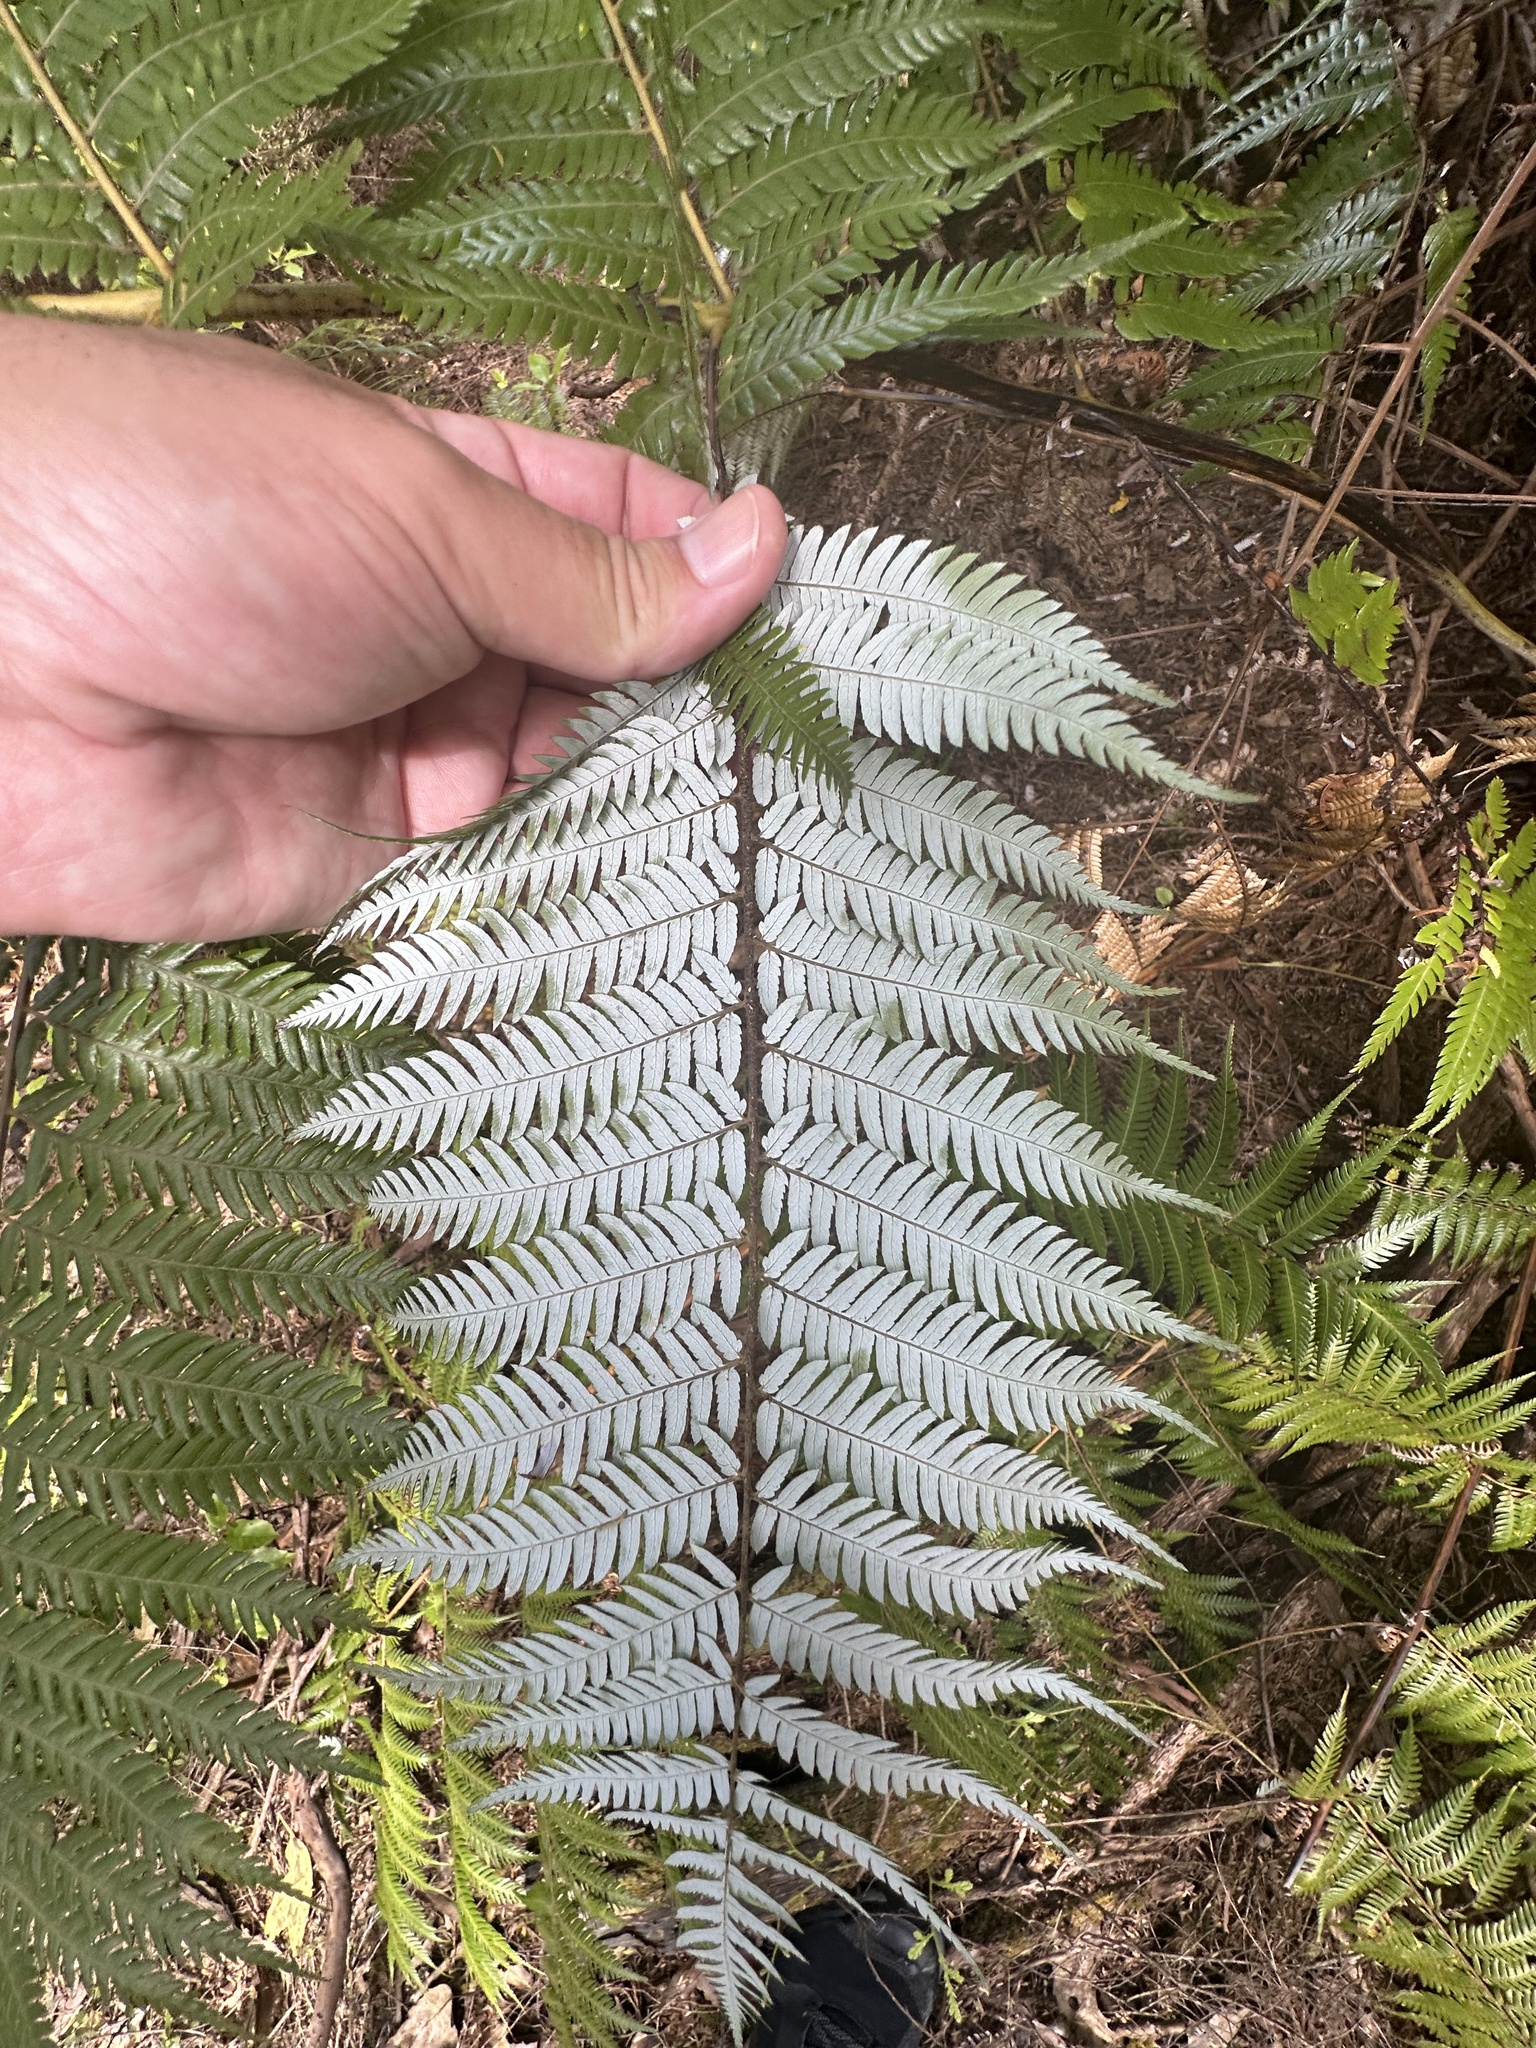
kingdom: Plantae
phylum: Tracheophyta
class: Polypodiopsida
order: Cyatheales
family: Cyatheaceae
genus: Alsophila
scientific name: Alsophila dealbata
